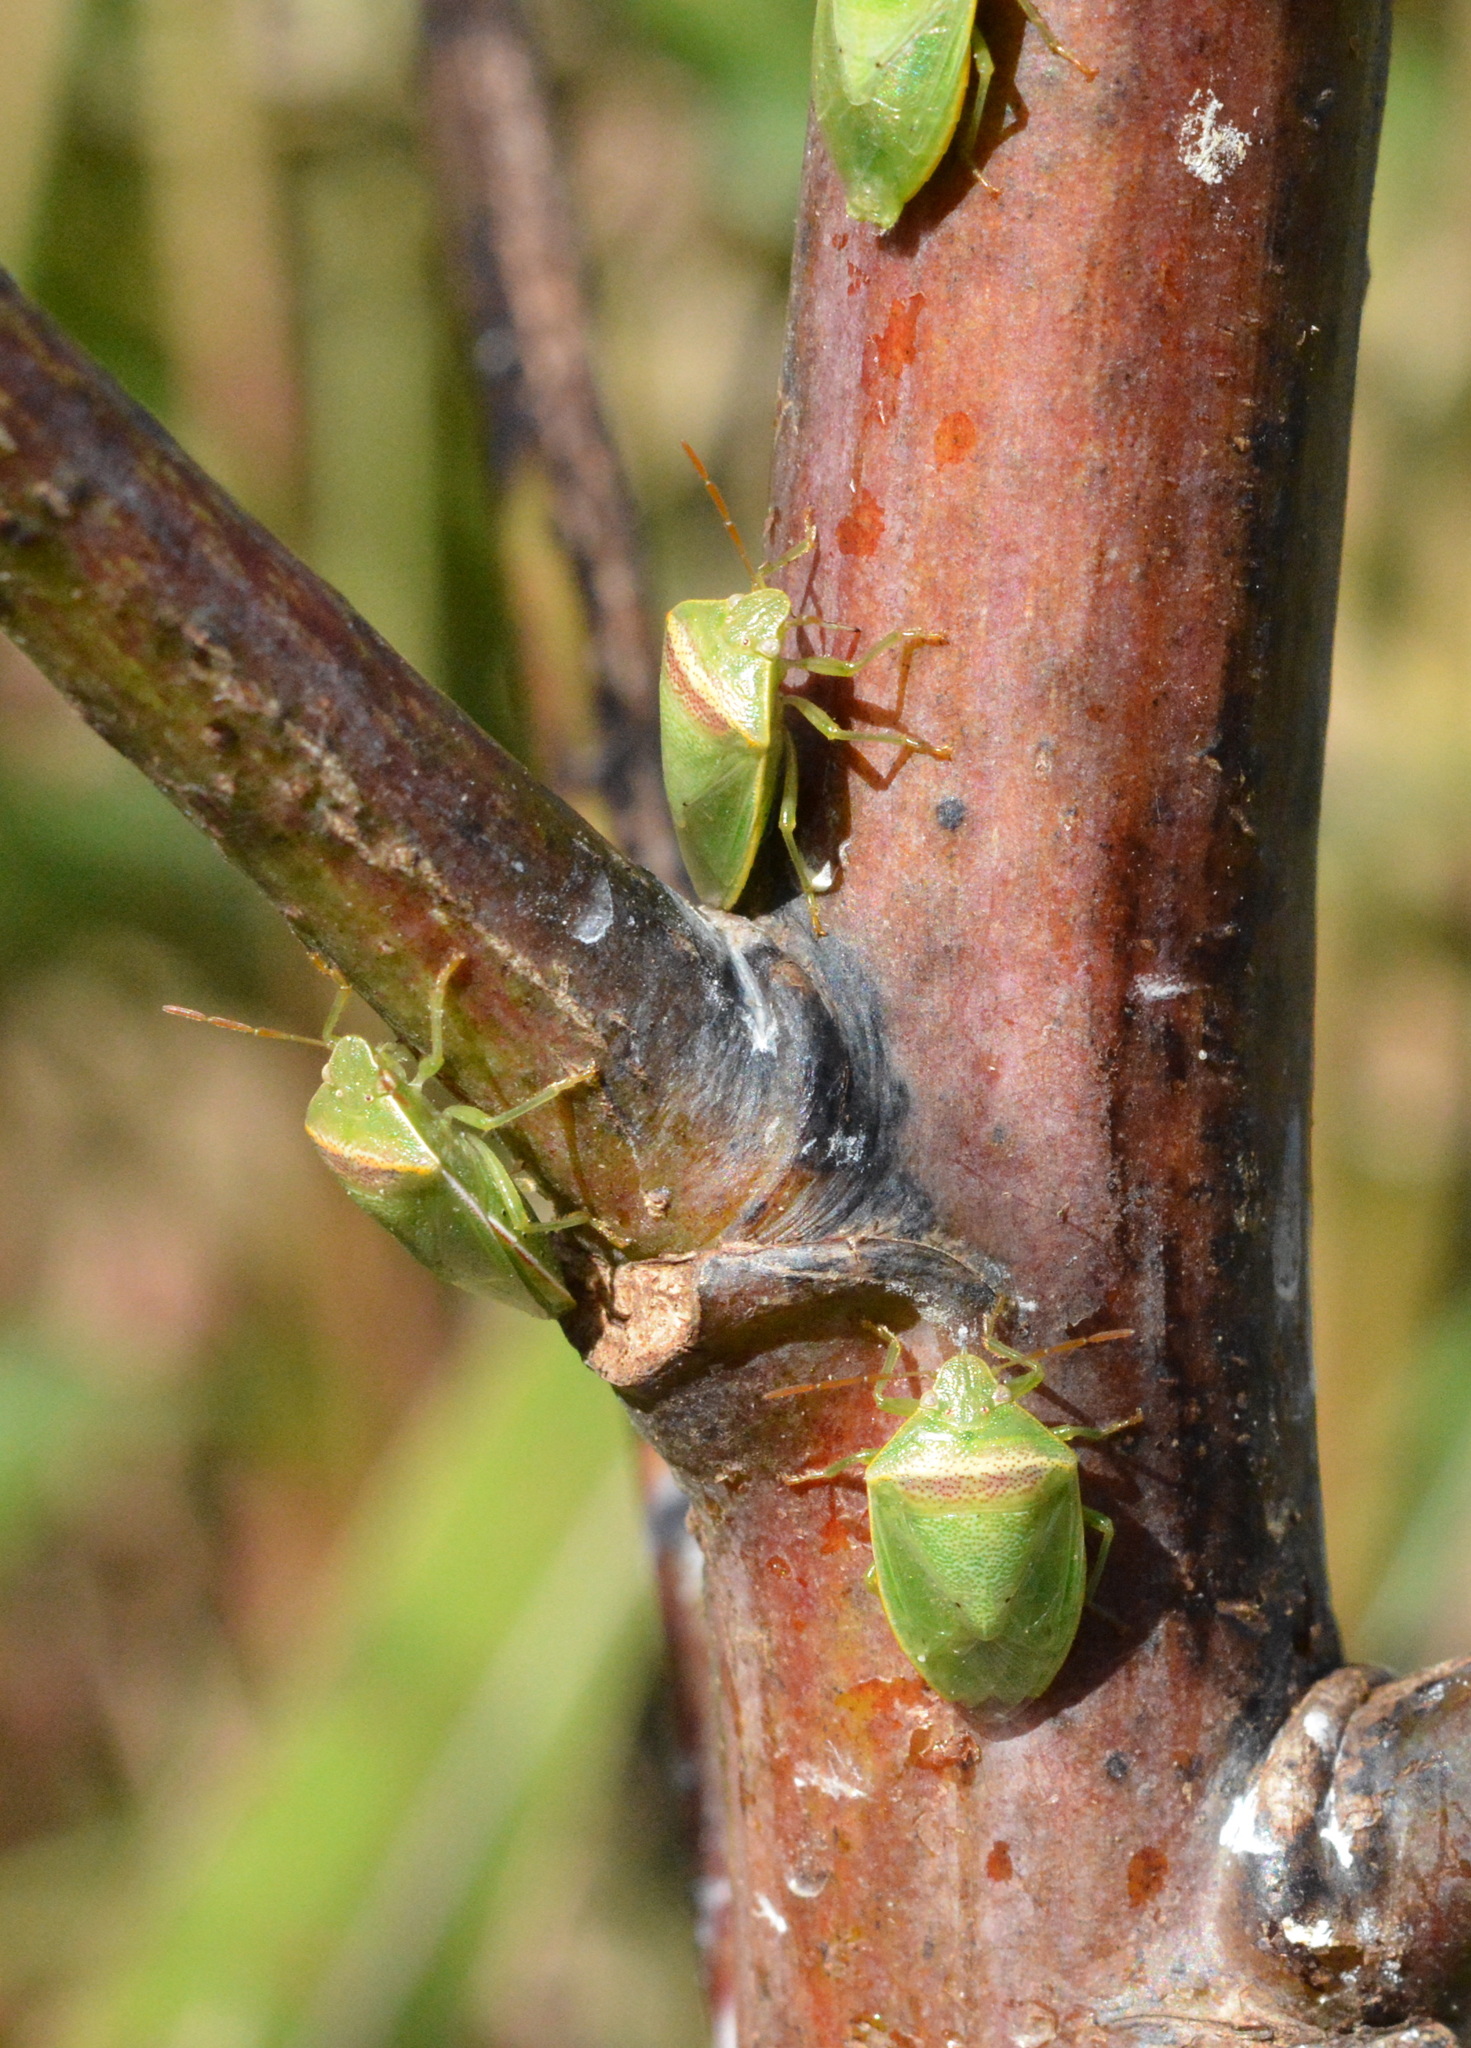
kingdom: Animalia
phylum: Arthropoda
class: Insecta
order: Hemiptera
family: Pentatomidae
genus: Piezodorus
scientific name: Piezodorus guildinii
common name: Redbanded stink bug
